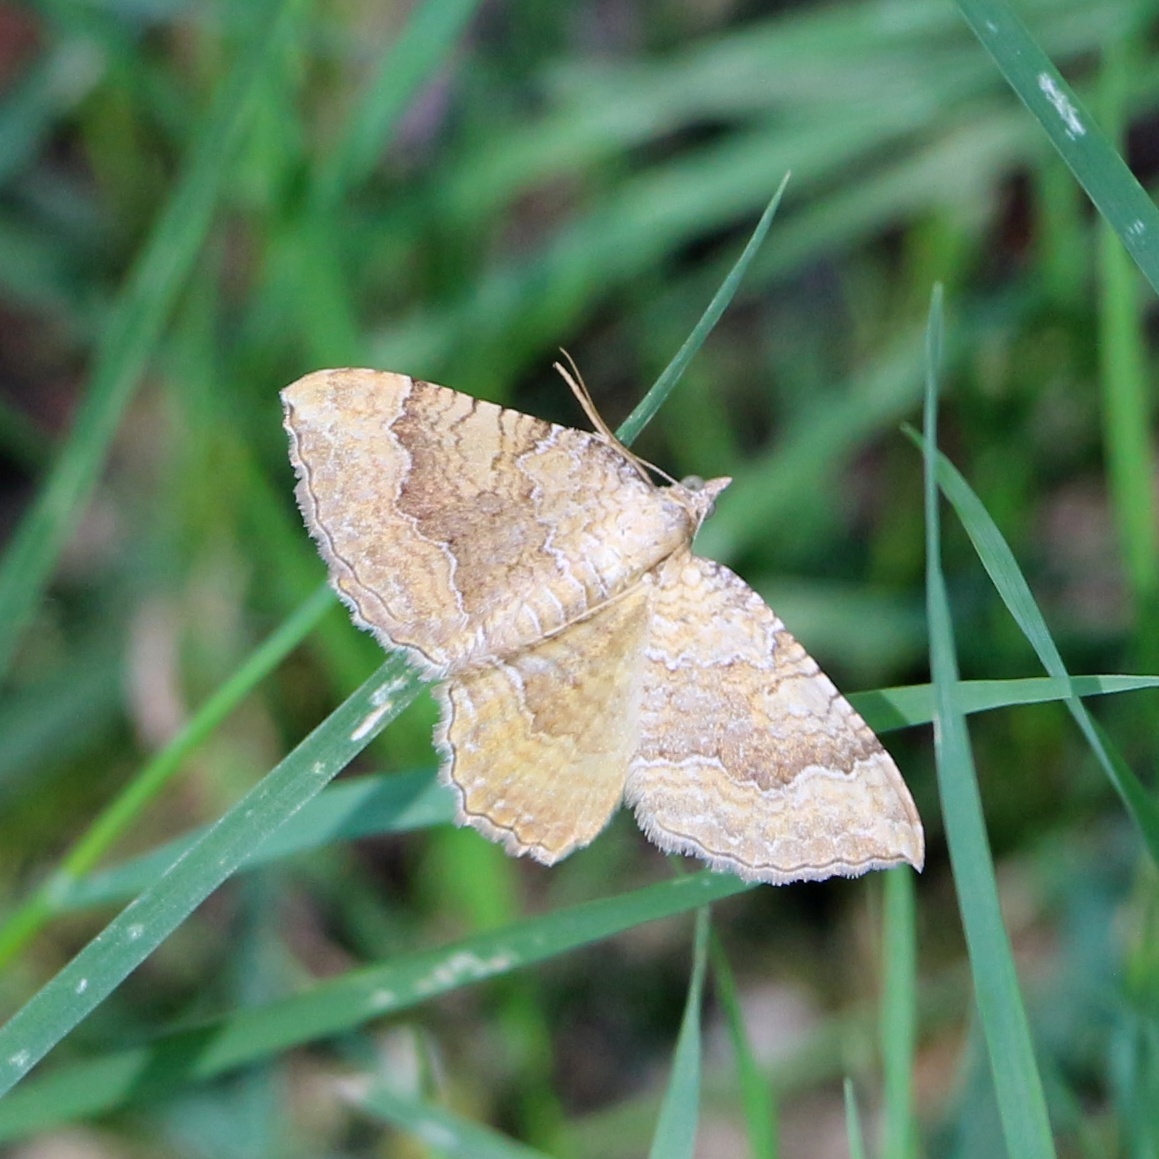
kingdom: Animalia
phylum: Arthropoda
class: Insecta
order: Lepidoptera
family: Geometridae
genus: Camptogramma
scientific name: Camptogramma bilineata
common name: Yellow shell
